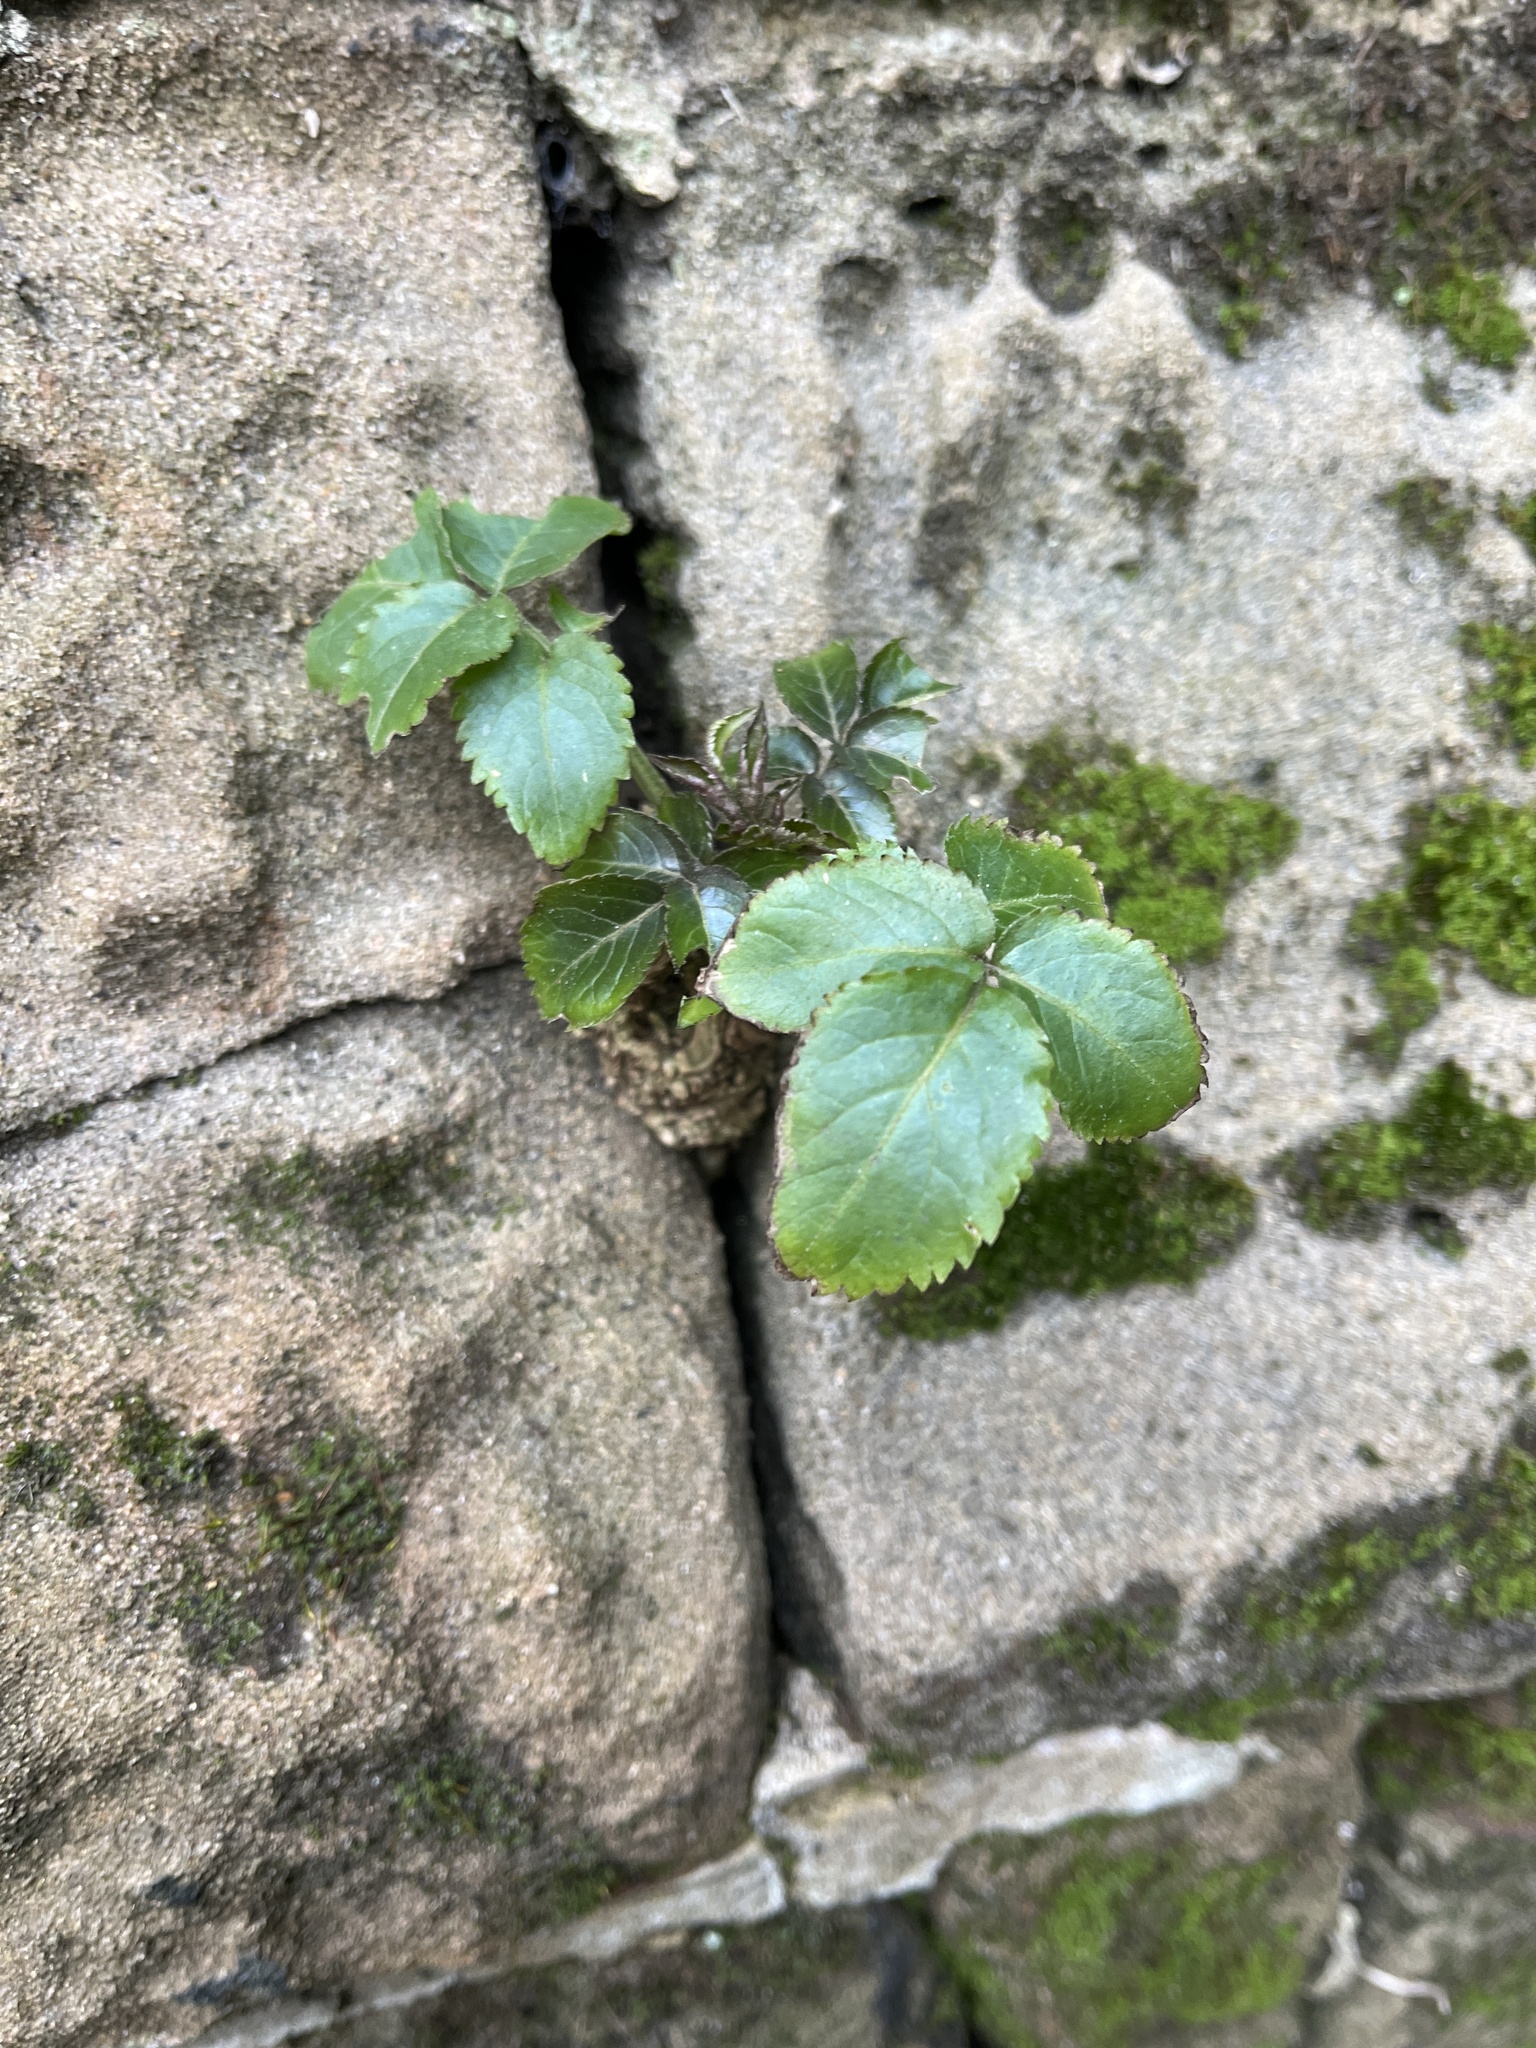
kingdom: Plantae
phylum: Tracheophyta
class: Magnoliopsida
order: Dipsacales
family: Viburnaceae
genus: Sambucus
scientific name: Sambucus nigra
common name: Elder
